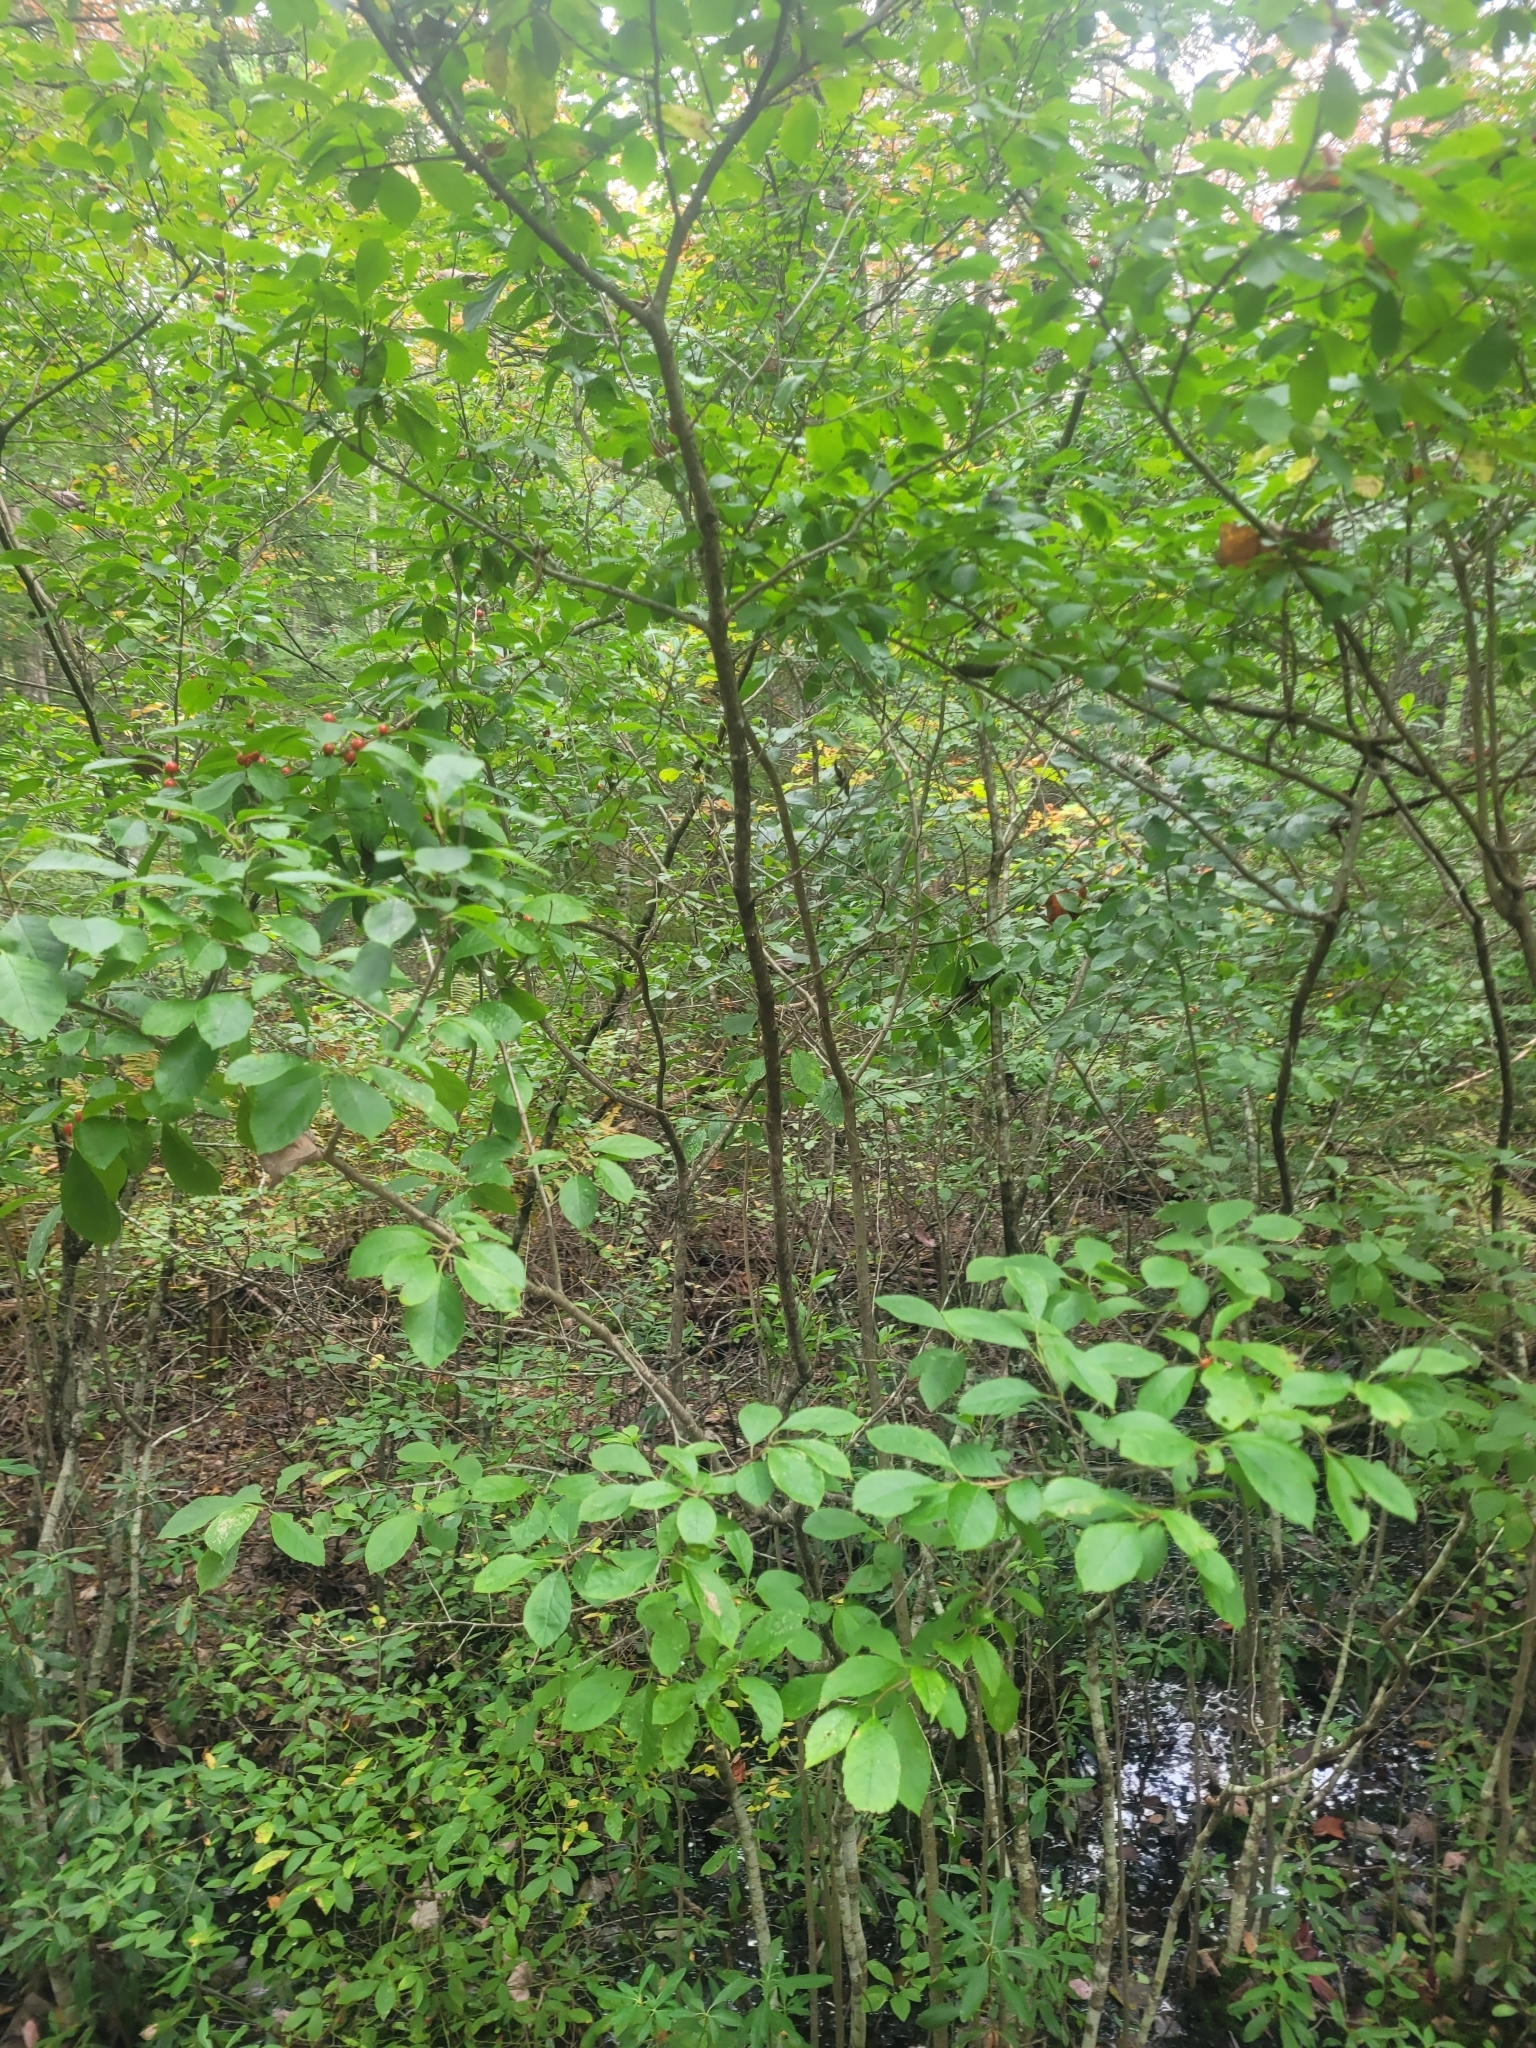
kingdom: Plantae
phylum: Tracheophyta
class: Magnoliopsida
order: Aquifoliales
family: Aquifoliaceae
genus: Ilex
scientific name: Ilex verticillata
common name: Virginia winterberry
